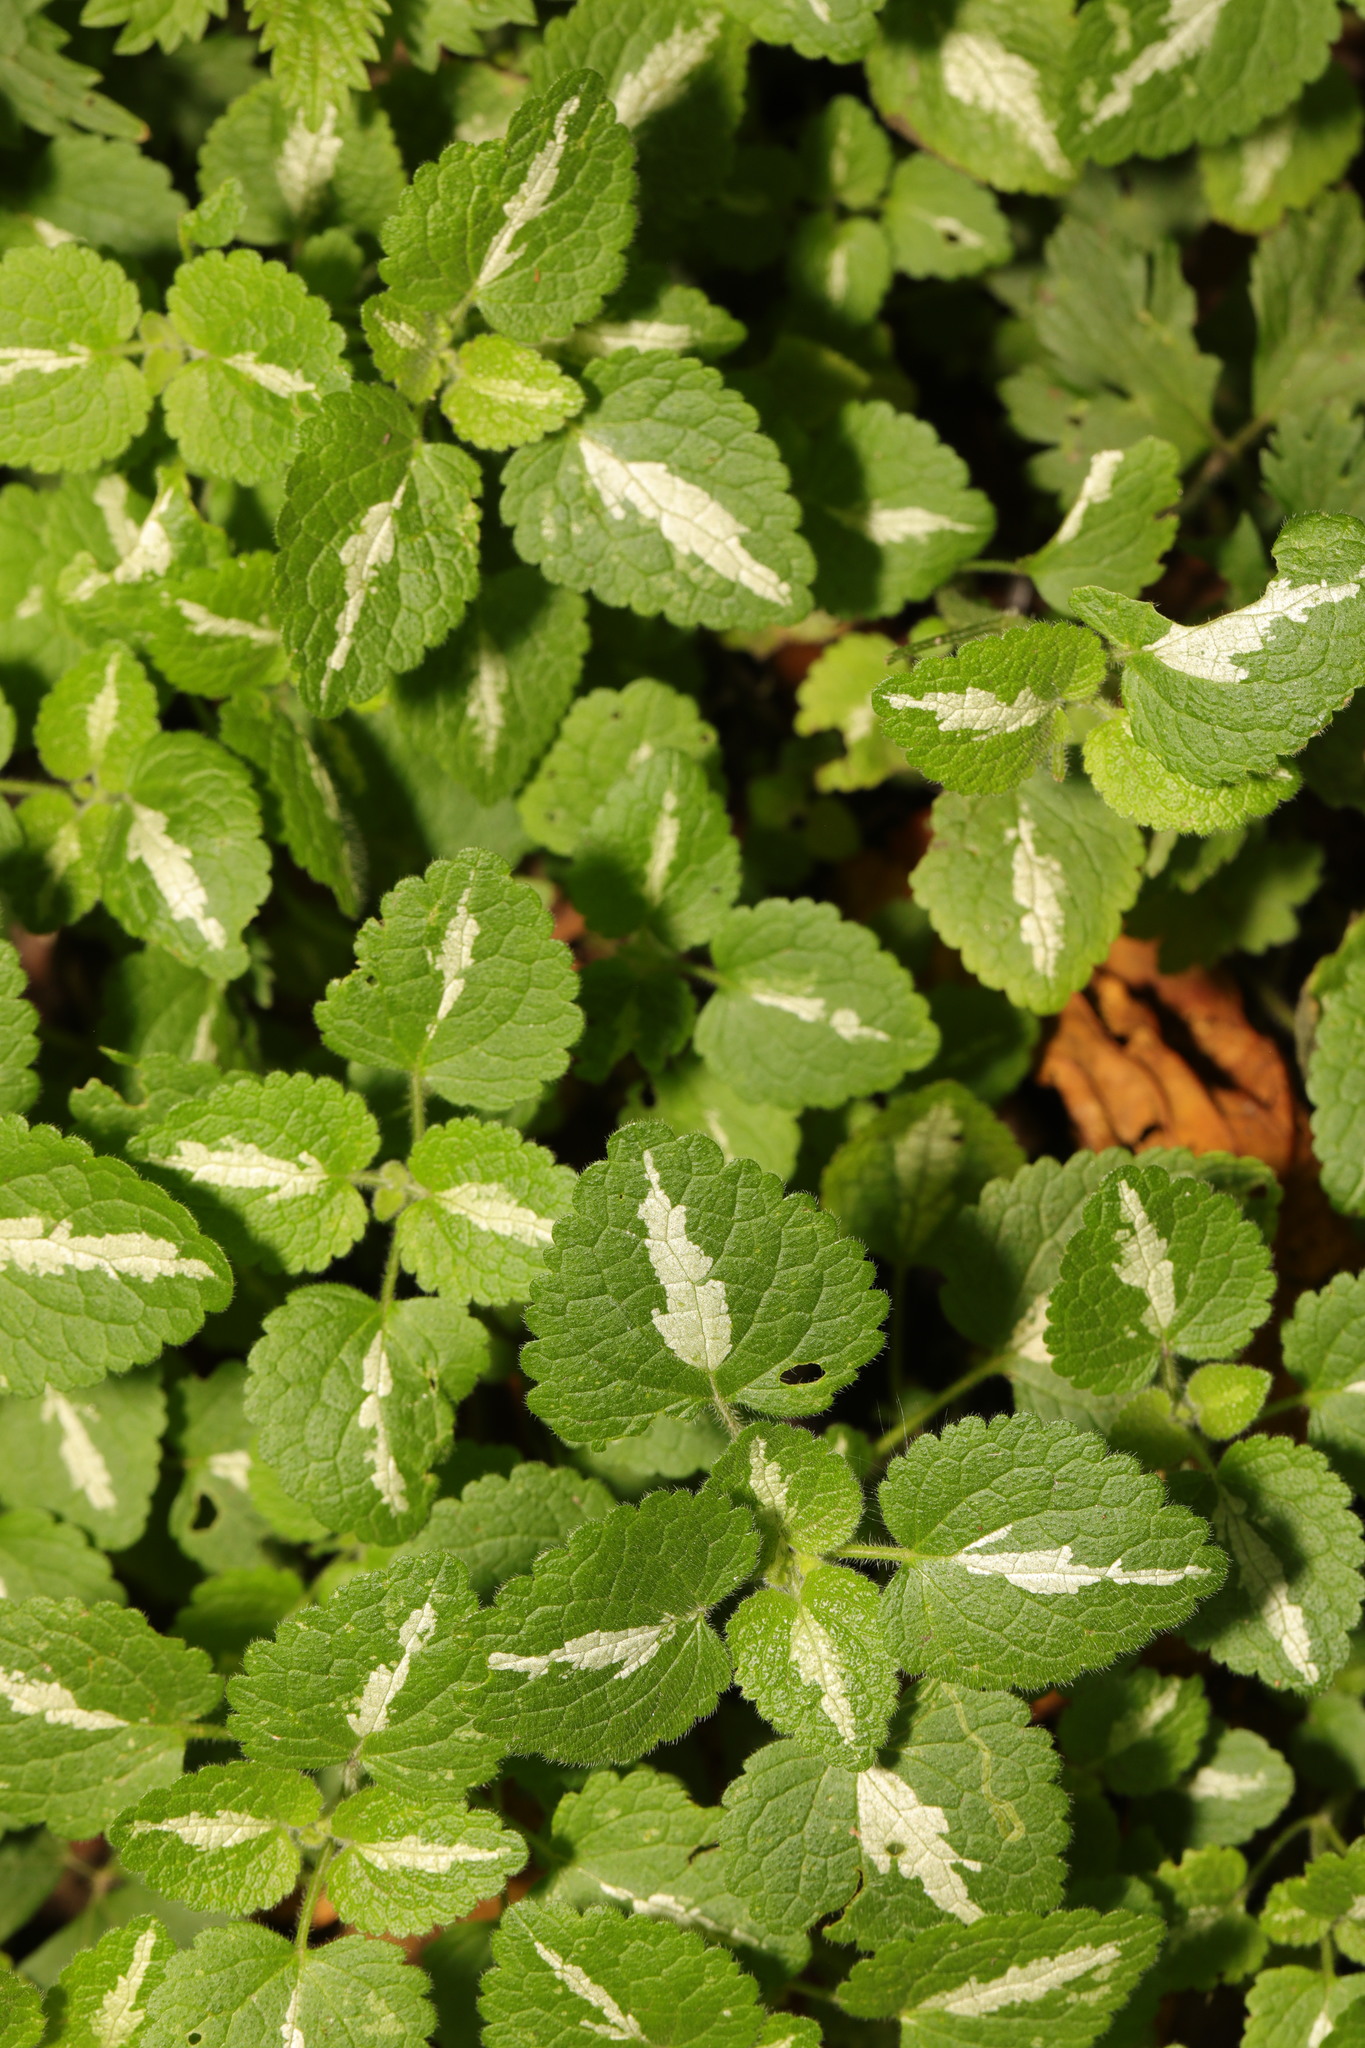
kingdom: Plantae
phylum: Tracheophyta
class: Magnoliopsida
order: Lamiales
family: Lamiaceae
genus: Lamium
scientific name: Lamium maculatum
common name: Spotted dead-nettle
